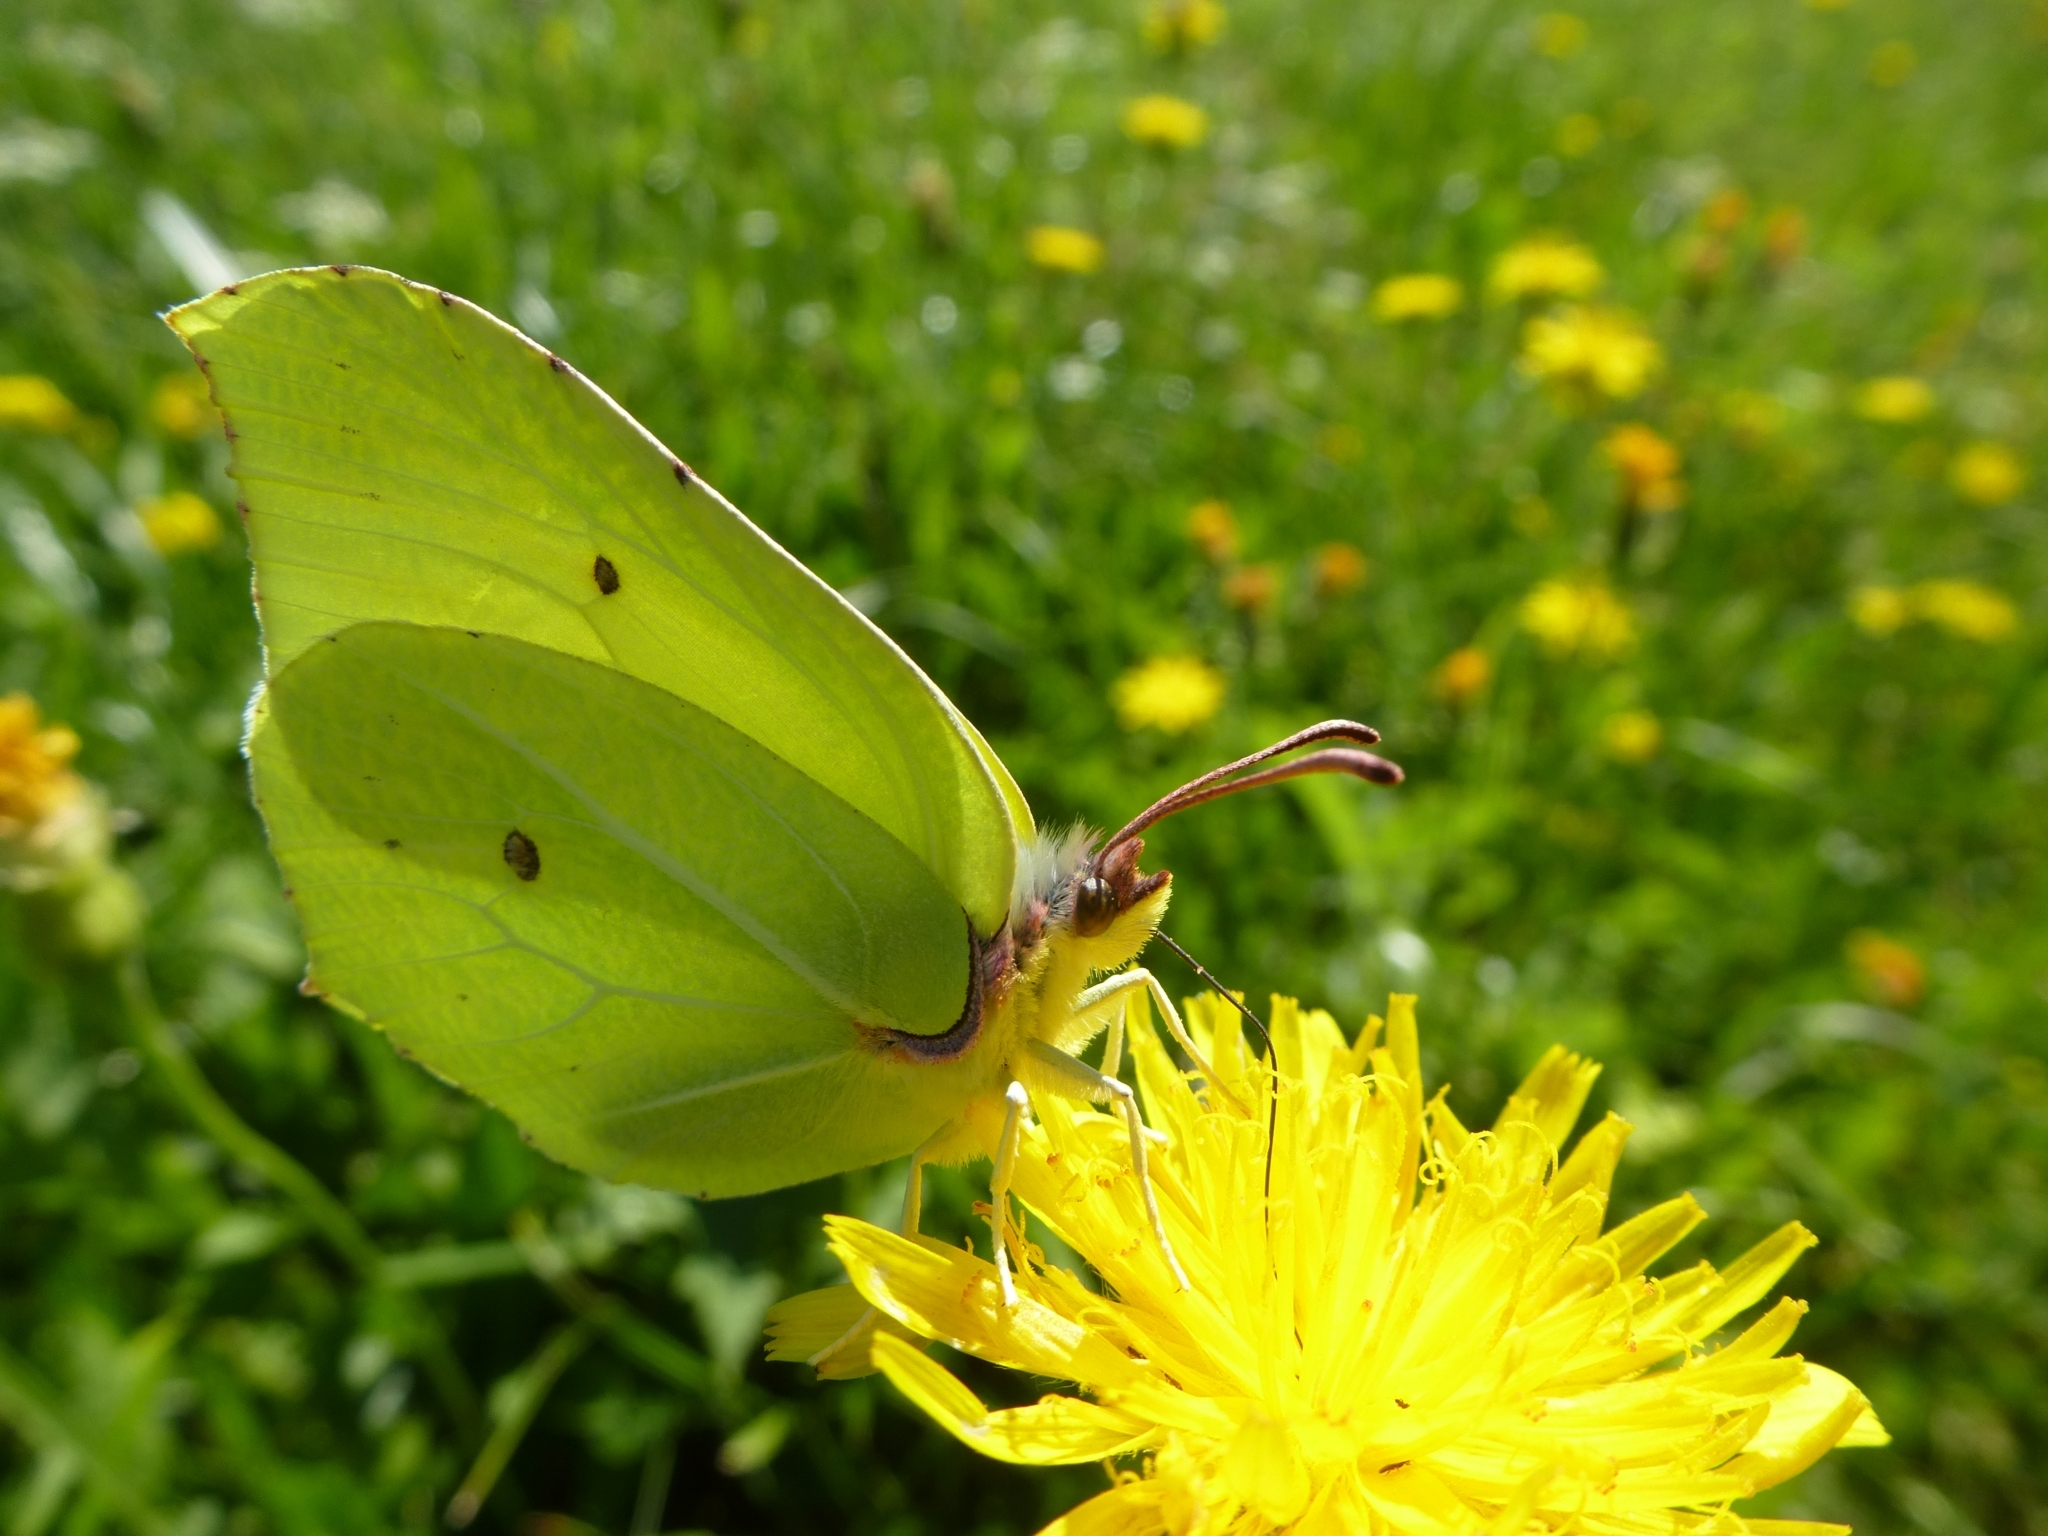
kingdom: Animalia
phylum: Arthropoda
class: Insecta
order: Lepidoptera
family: Pieridae
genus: Gonepteryx
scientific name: Gonepteryx rhamni
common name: Brimstone
